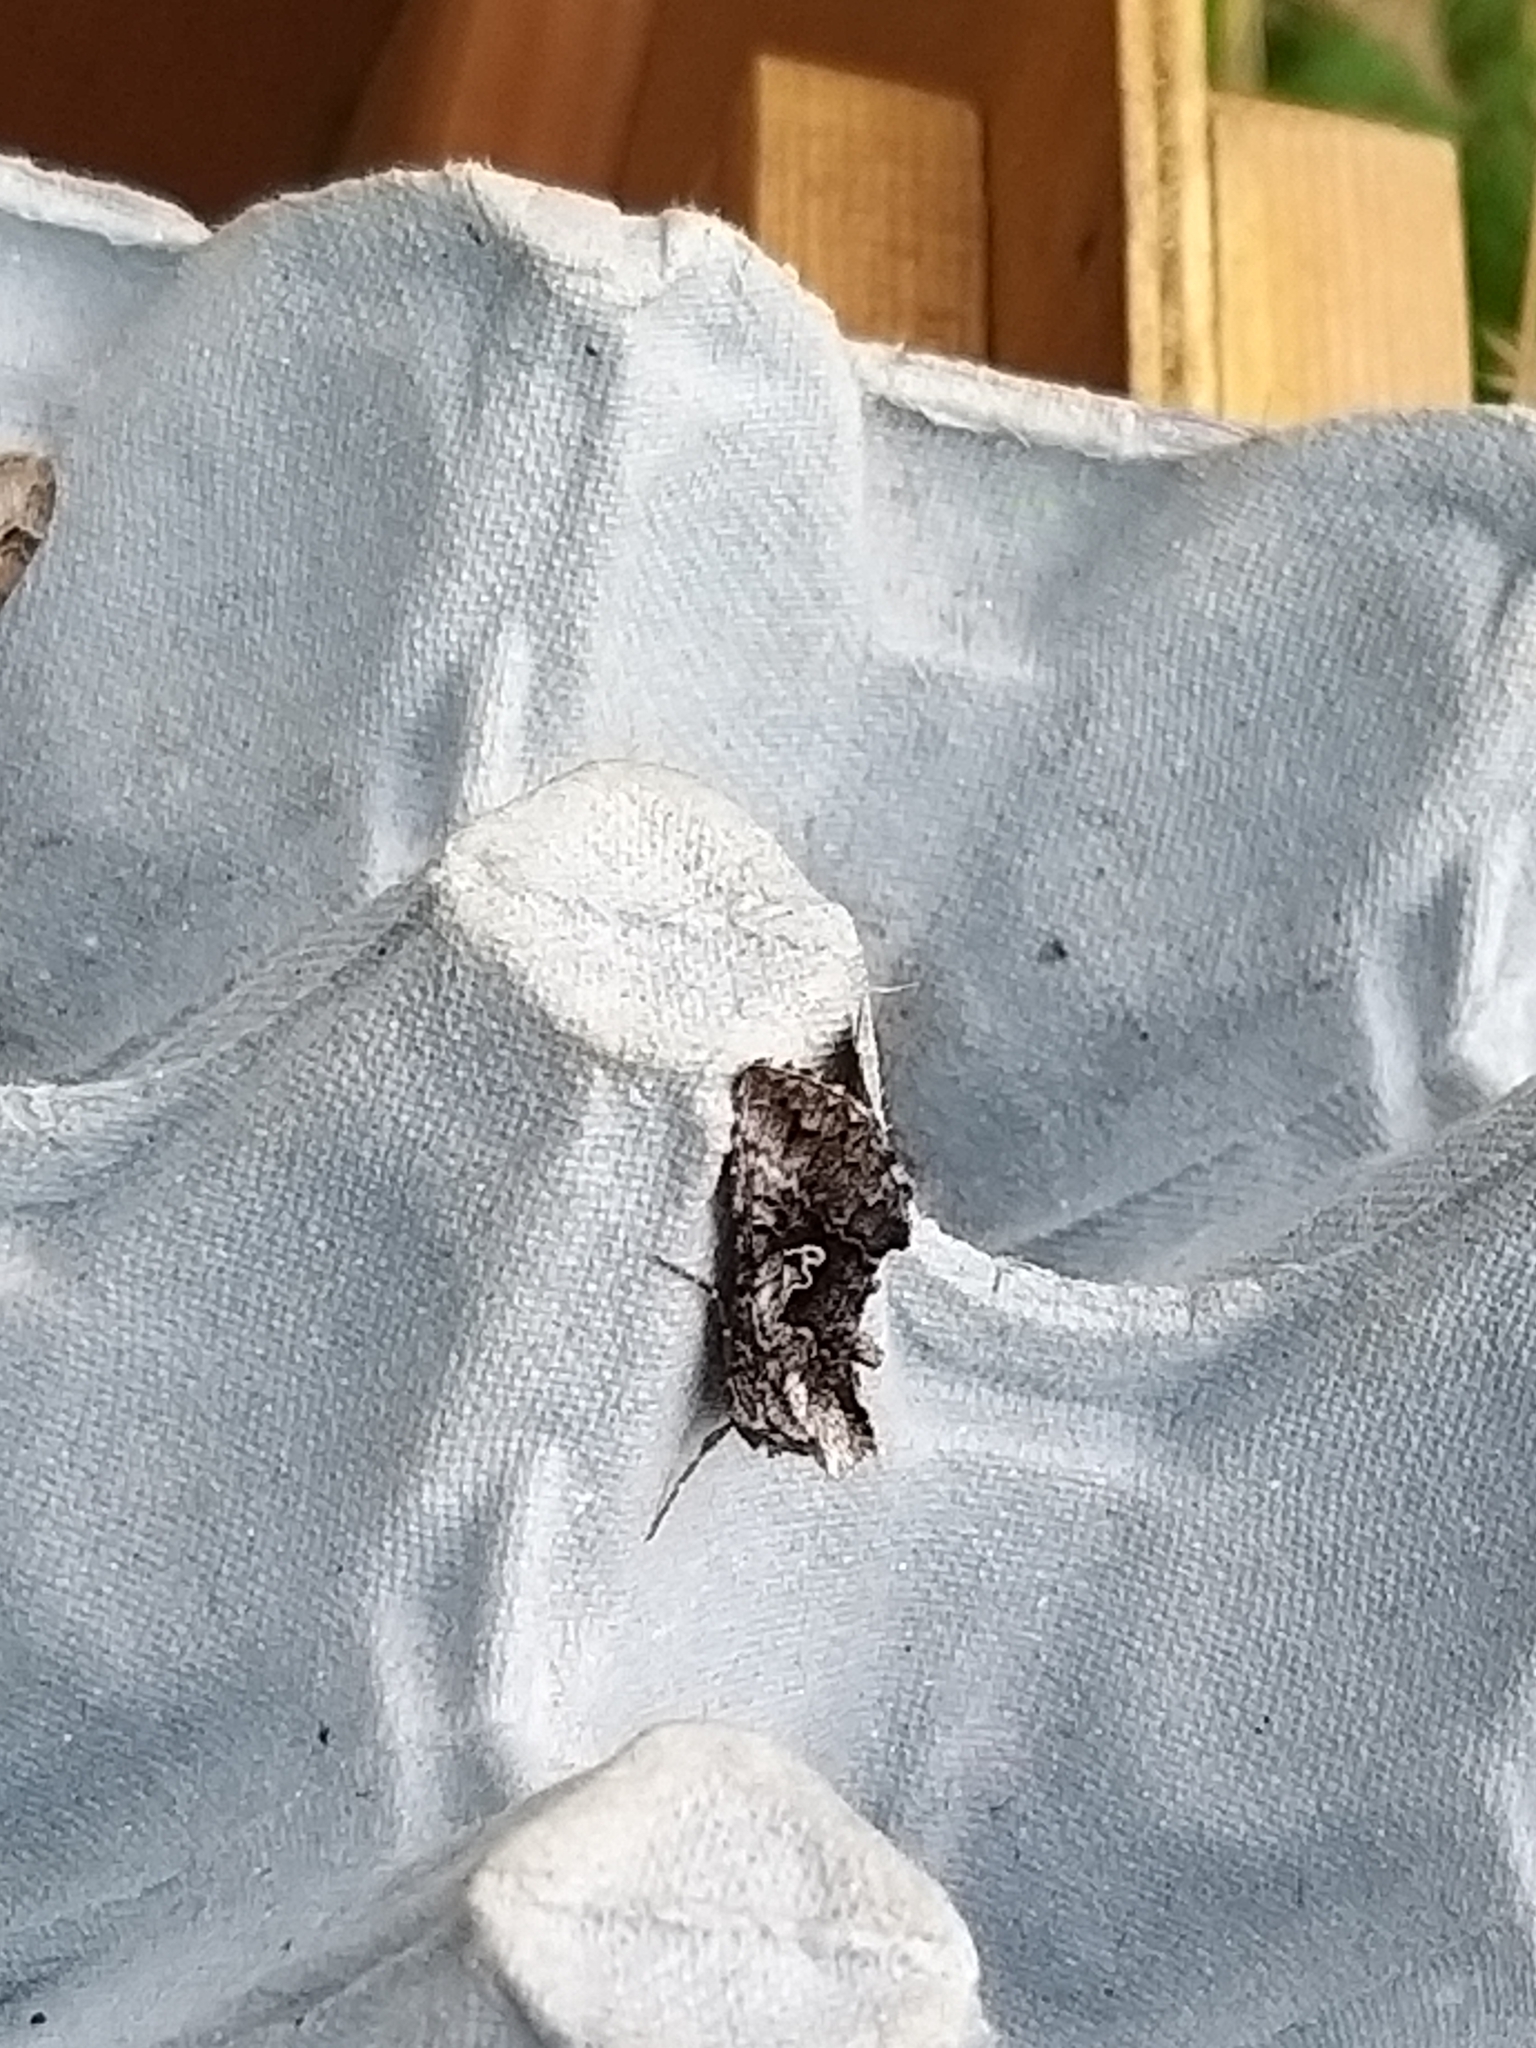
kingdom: Animalia
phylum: Arthropoda
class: Insecta
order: Lepidoptera
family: Noctuidae
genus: Syngrapha
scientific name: Syngrapha interrogationis
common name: Scarce silver y
